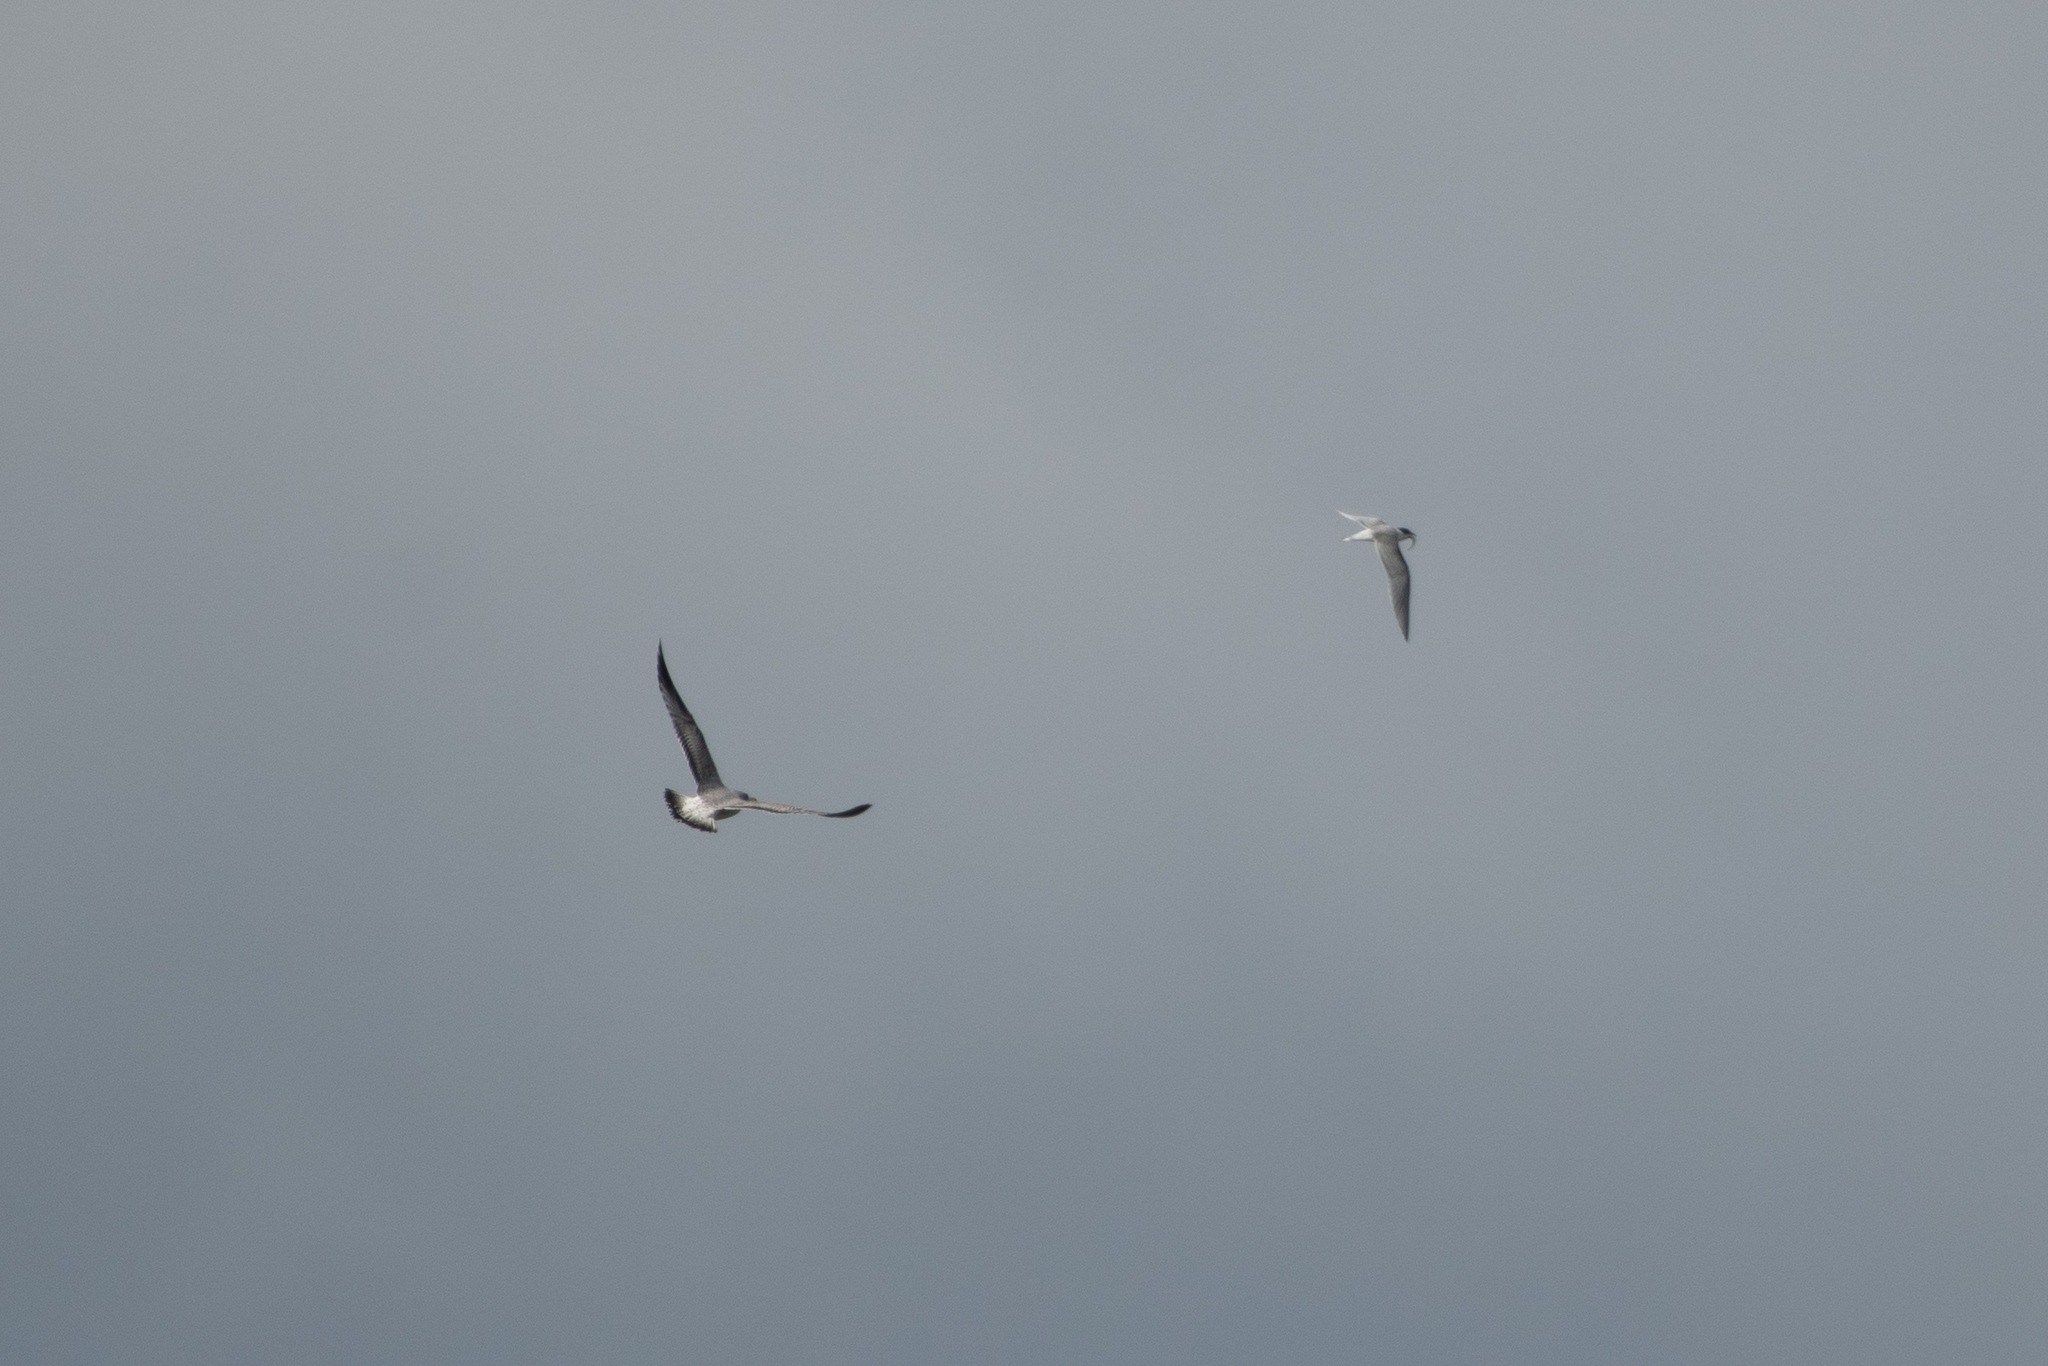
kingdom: Animalia
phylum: Chordata
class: Aves
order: Charadriiformes
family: Laridae
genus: Sterna
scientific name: Sterna forsteri
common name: Forster's tern
